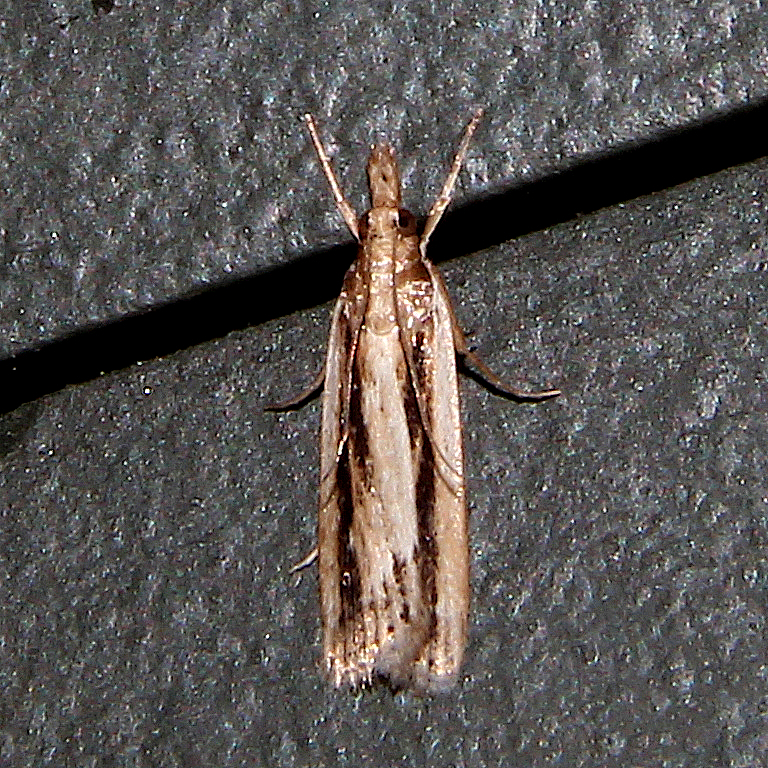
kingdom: Animalia
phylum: Arthropoda
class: Insecta
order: Lepidoptera
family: Crambidae
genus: Eudonia
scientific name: Eudonia sabulosella
